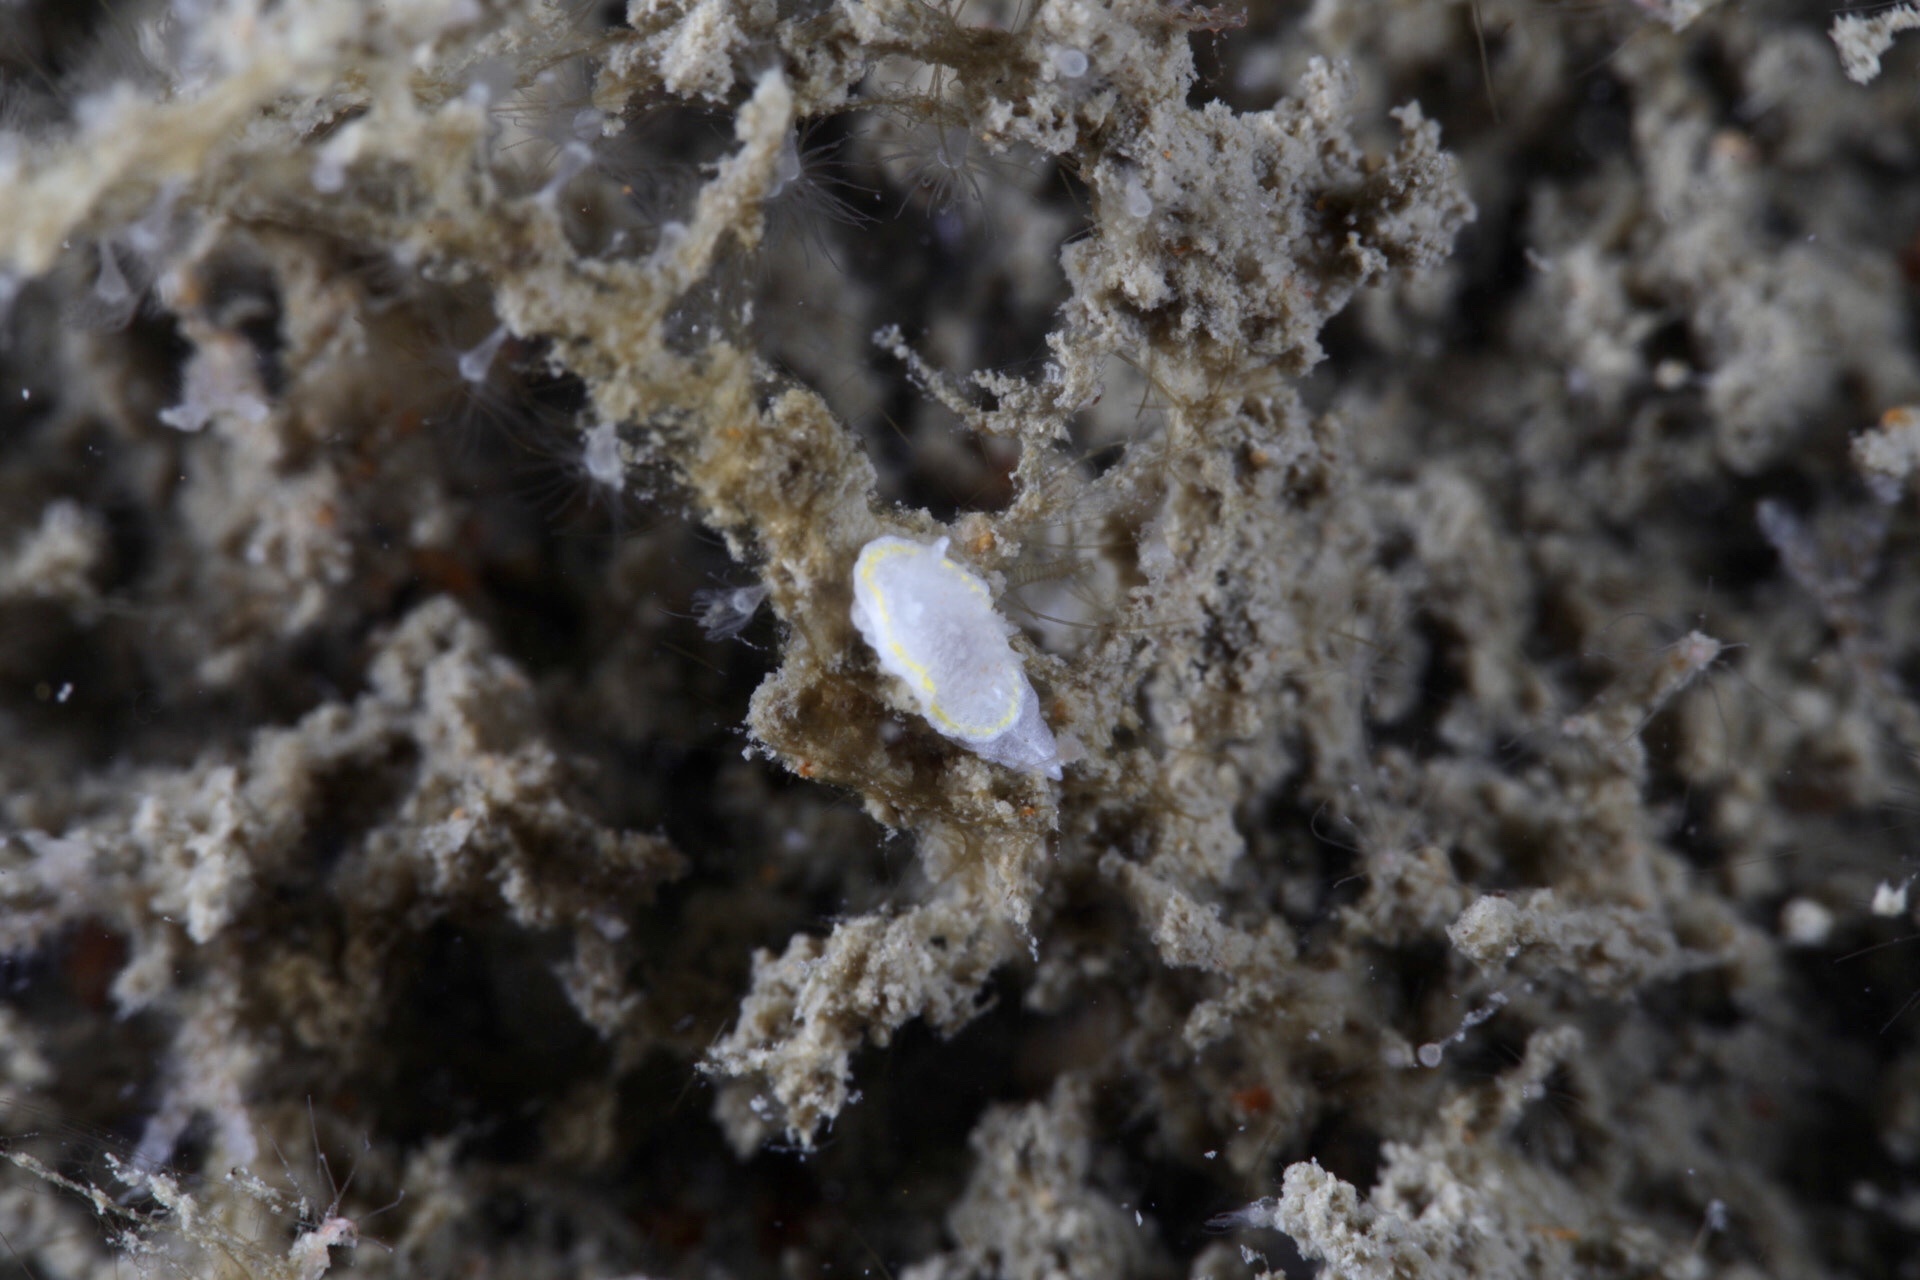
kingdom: Animalia
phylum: Mollusca
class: Gastropoda
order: Nudibranchia
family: Calycidorididae
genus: Diaphorodoris
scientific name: Diaphorodoris luteocincta
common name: Fried egg nudibranch
